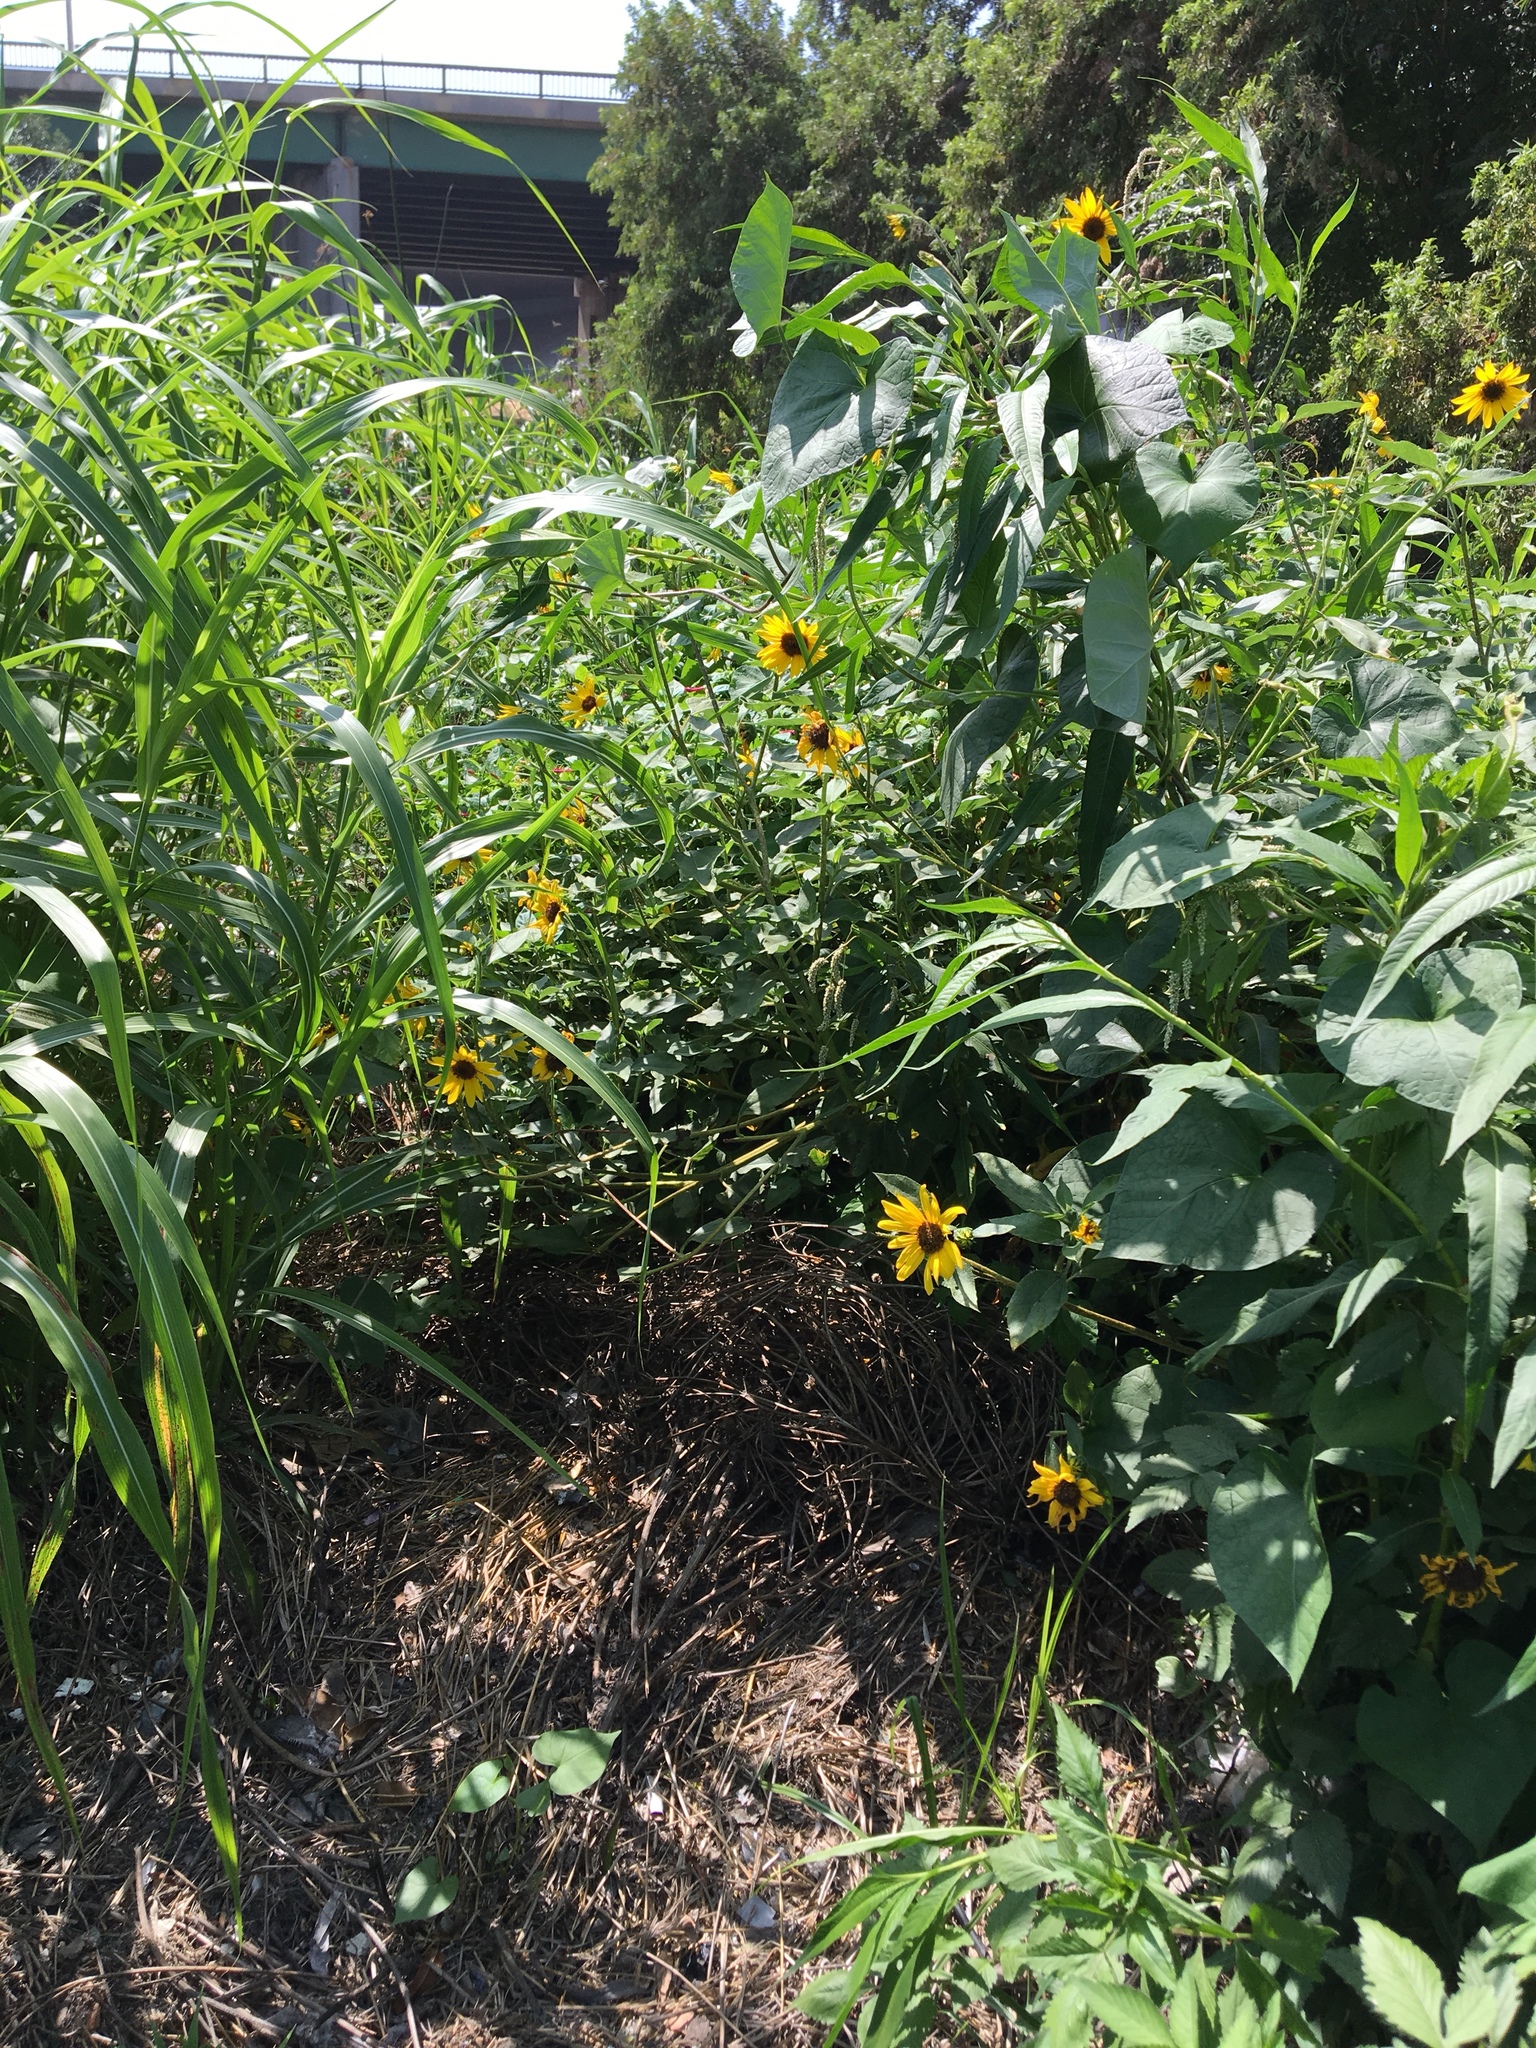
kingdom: Plantae
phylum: Tracheophyta
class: Magnoliopsida
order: Asterales
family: Asteraceae
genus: Helianthus
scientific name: Helianthus annuus
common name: Sunflower
